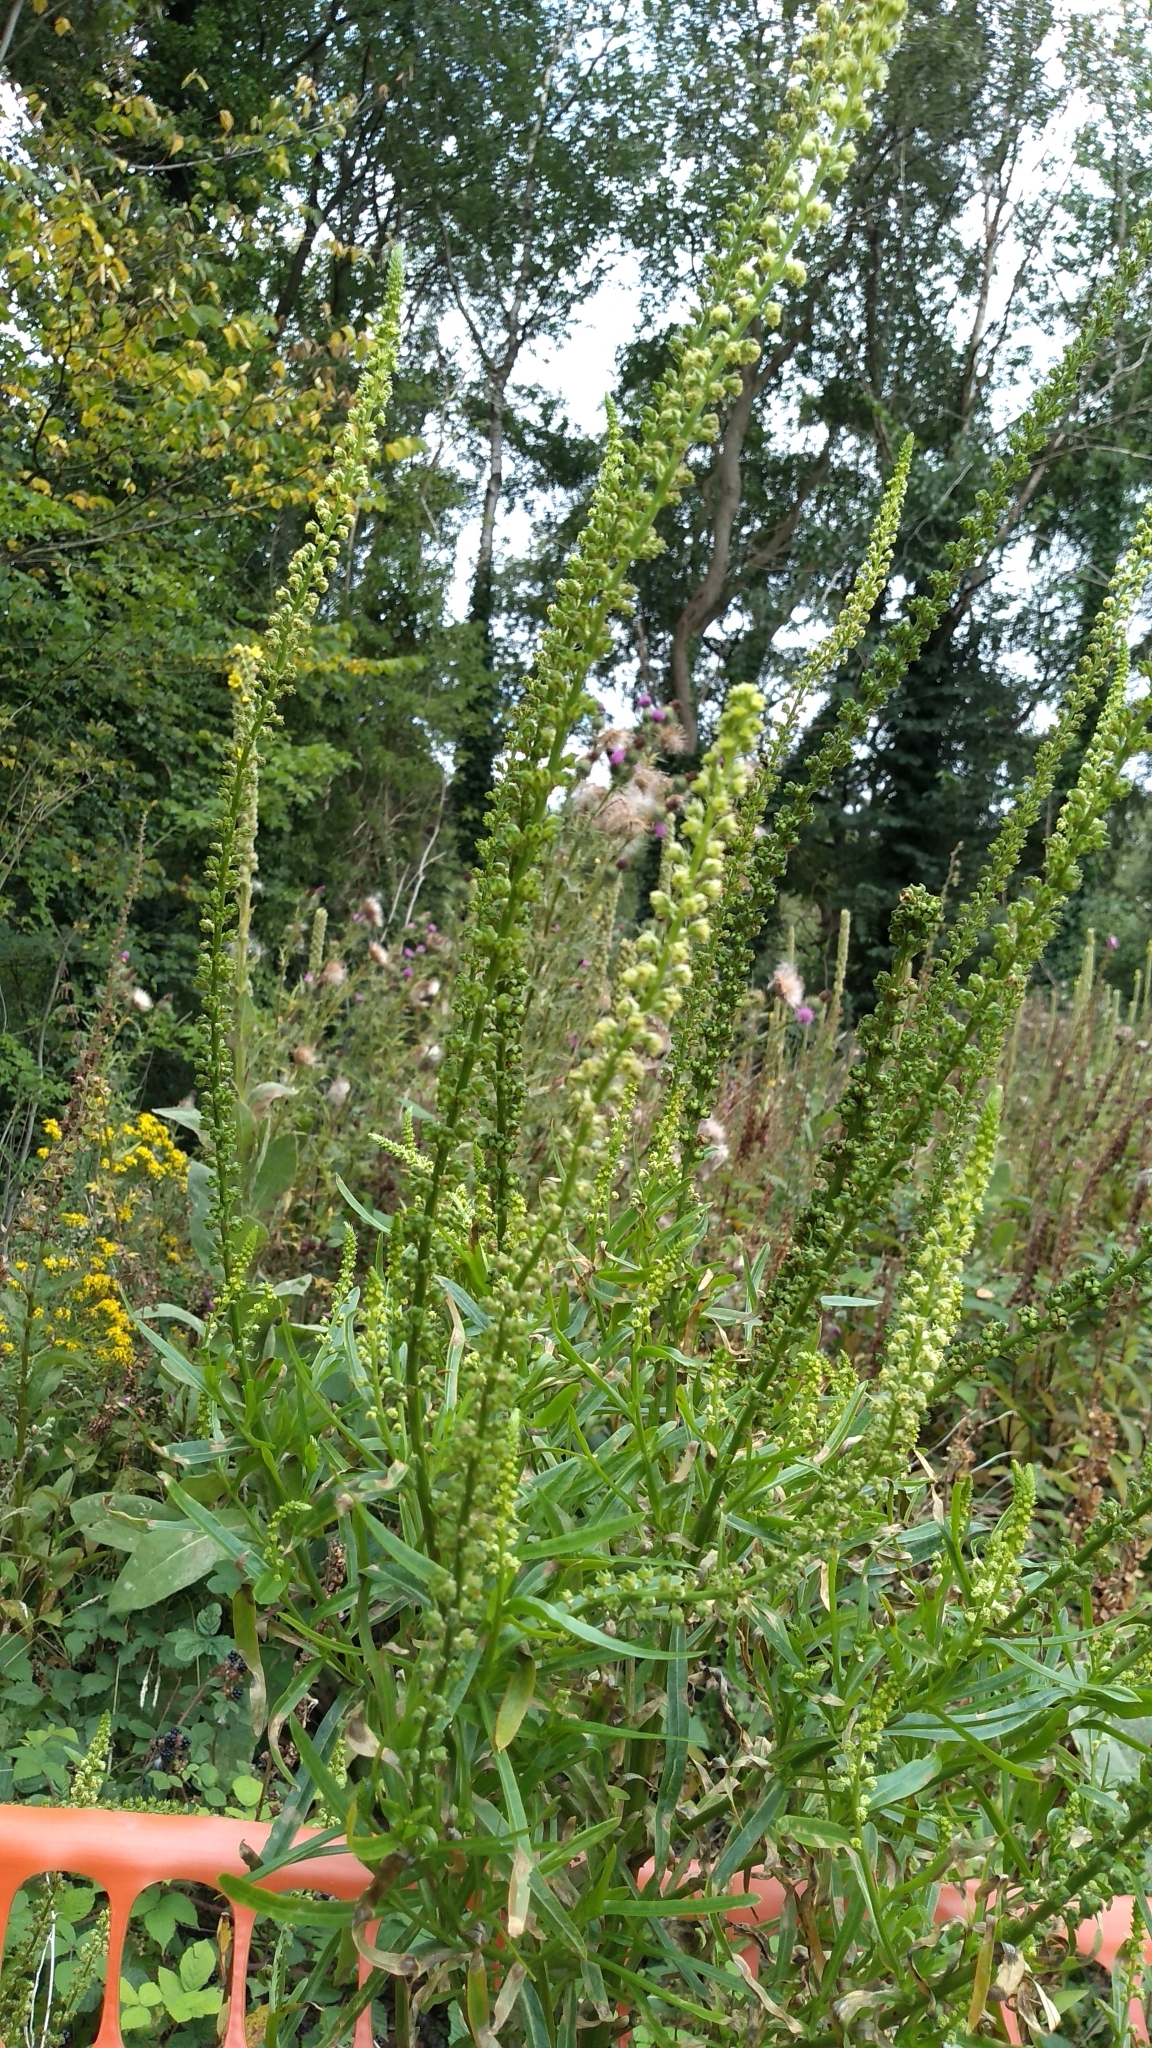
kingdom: Plantae
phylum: Tracheophyta
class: Magnoliopsida
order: Brassicales
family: Resedaceae
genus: Reseda
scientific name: Reseda luteola
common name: Weld
